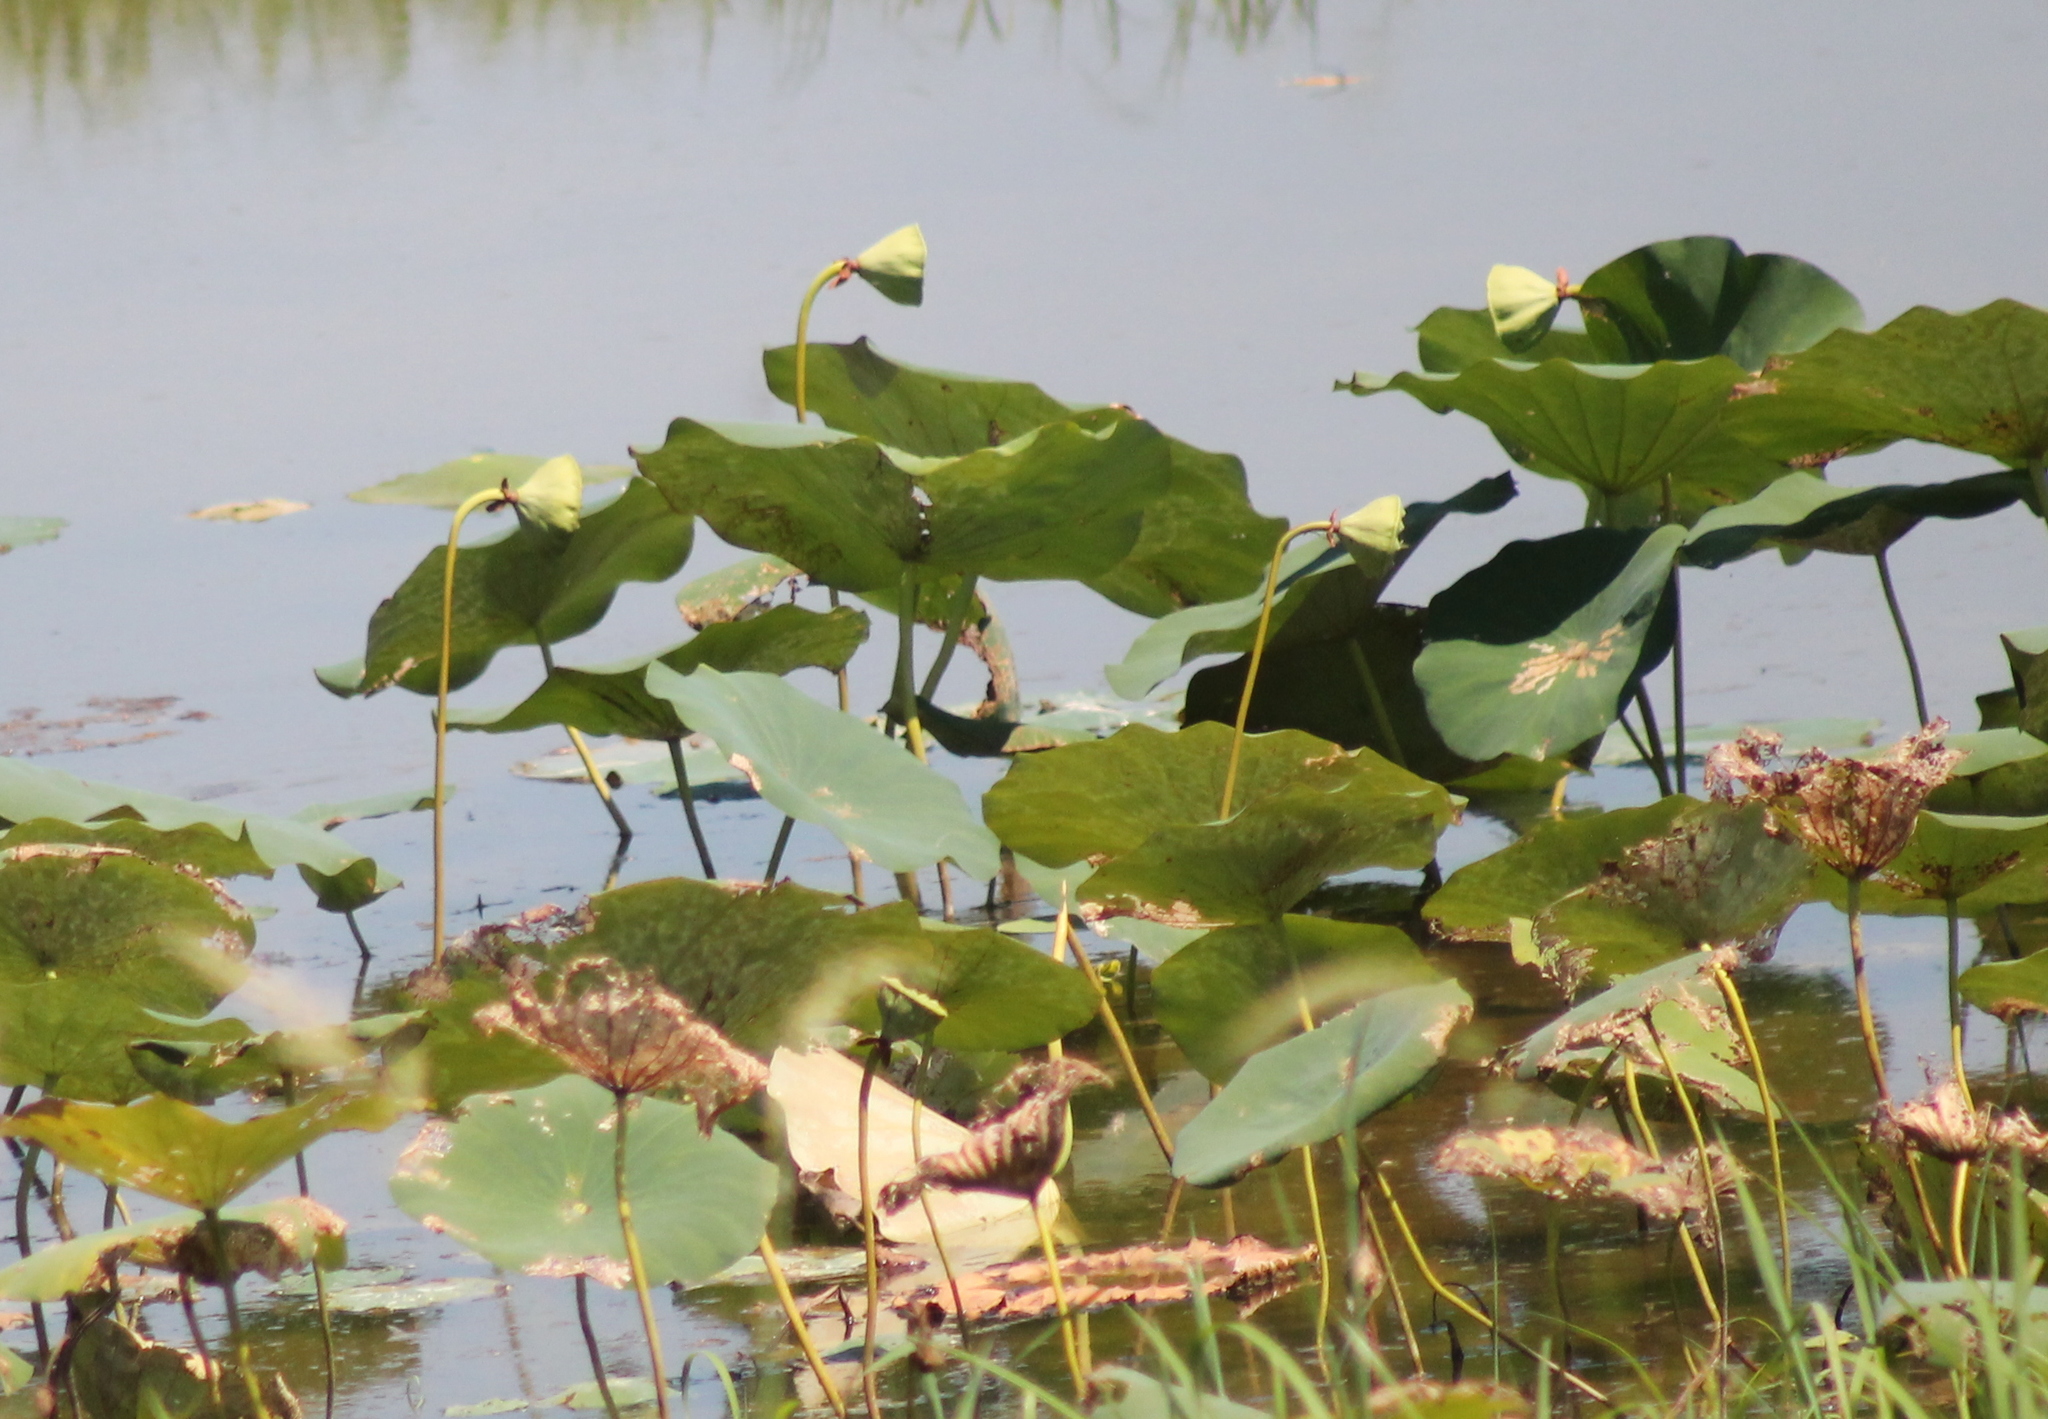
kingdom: Plantae
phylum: Tracheophyta
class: Magnoliopsida
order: Proteales
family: Nelumbonaceae
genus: Nelumbo
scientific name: Nelumbo lutea
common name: American lotus
